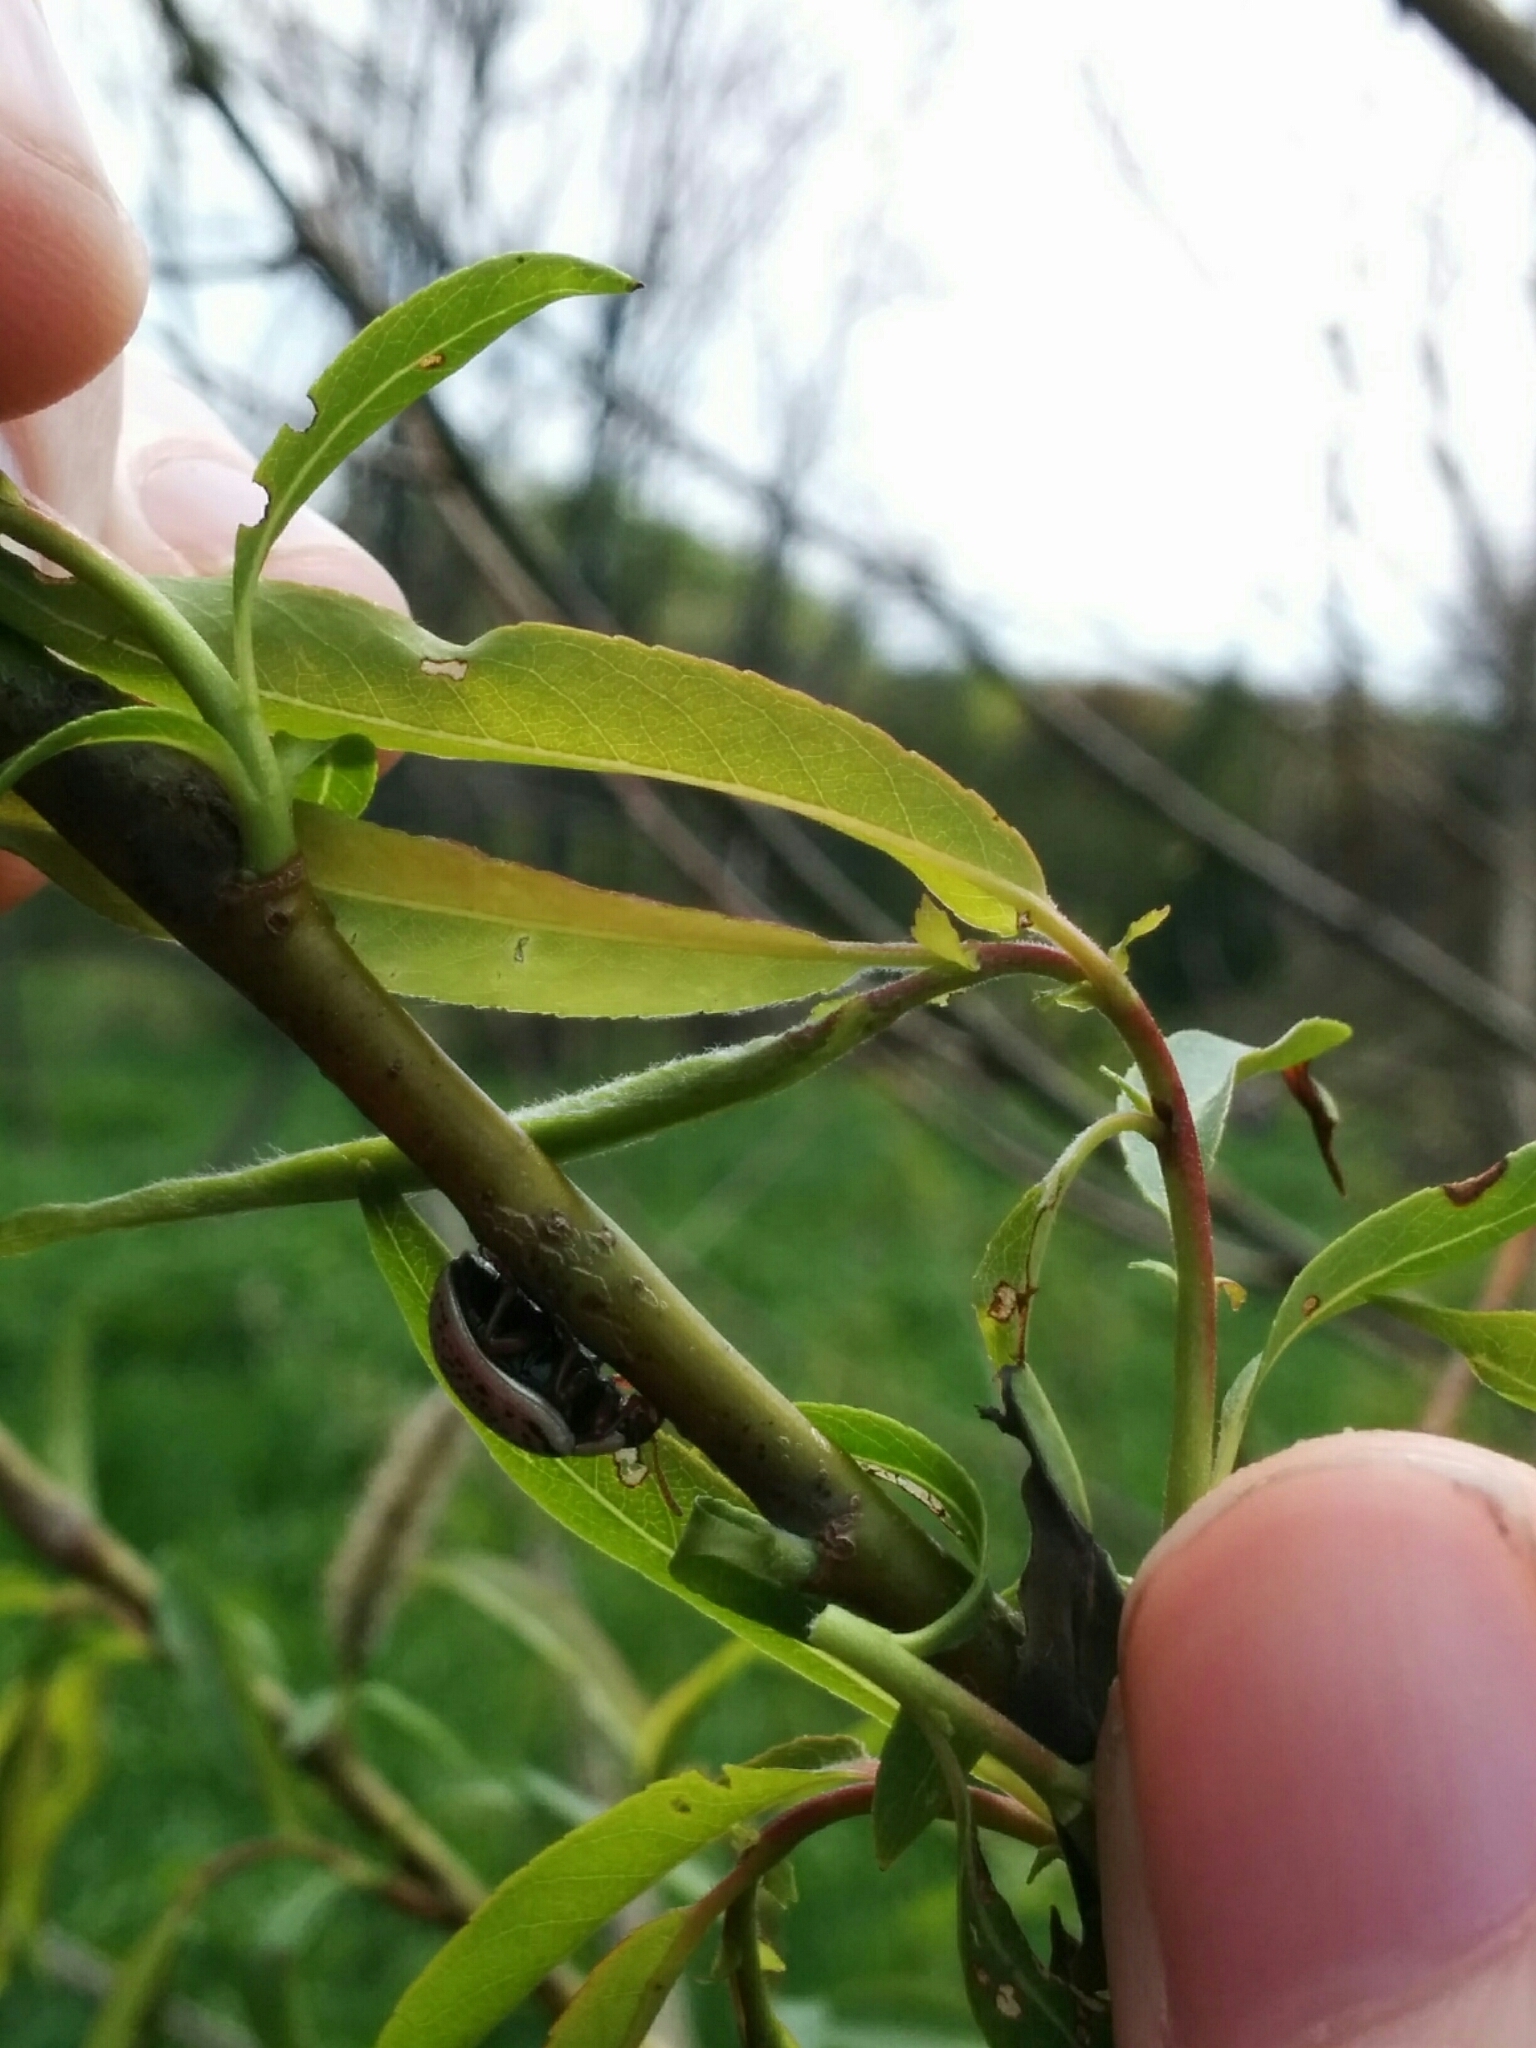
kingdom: Animalia
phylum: Arthropoda
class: Insecta
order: Coleoptera
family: Chrysomelidae
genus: Calligrapha
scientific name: Calligrapha multipunctata
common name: Common willow calligrapher beetle
